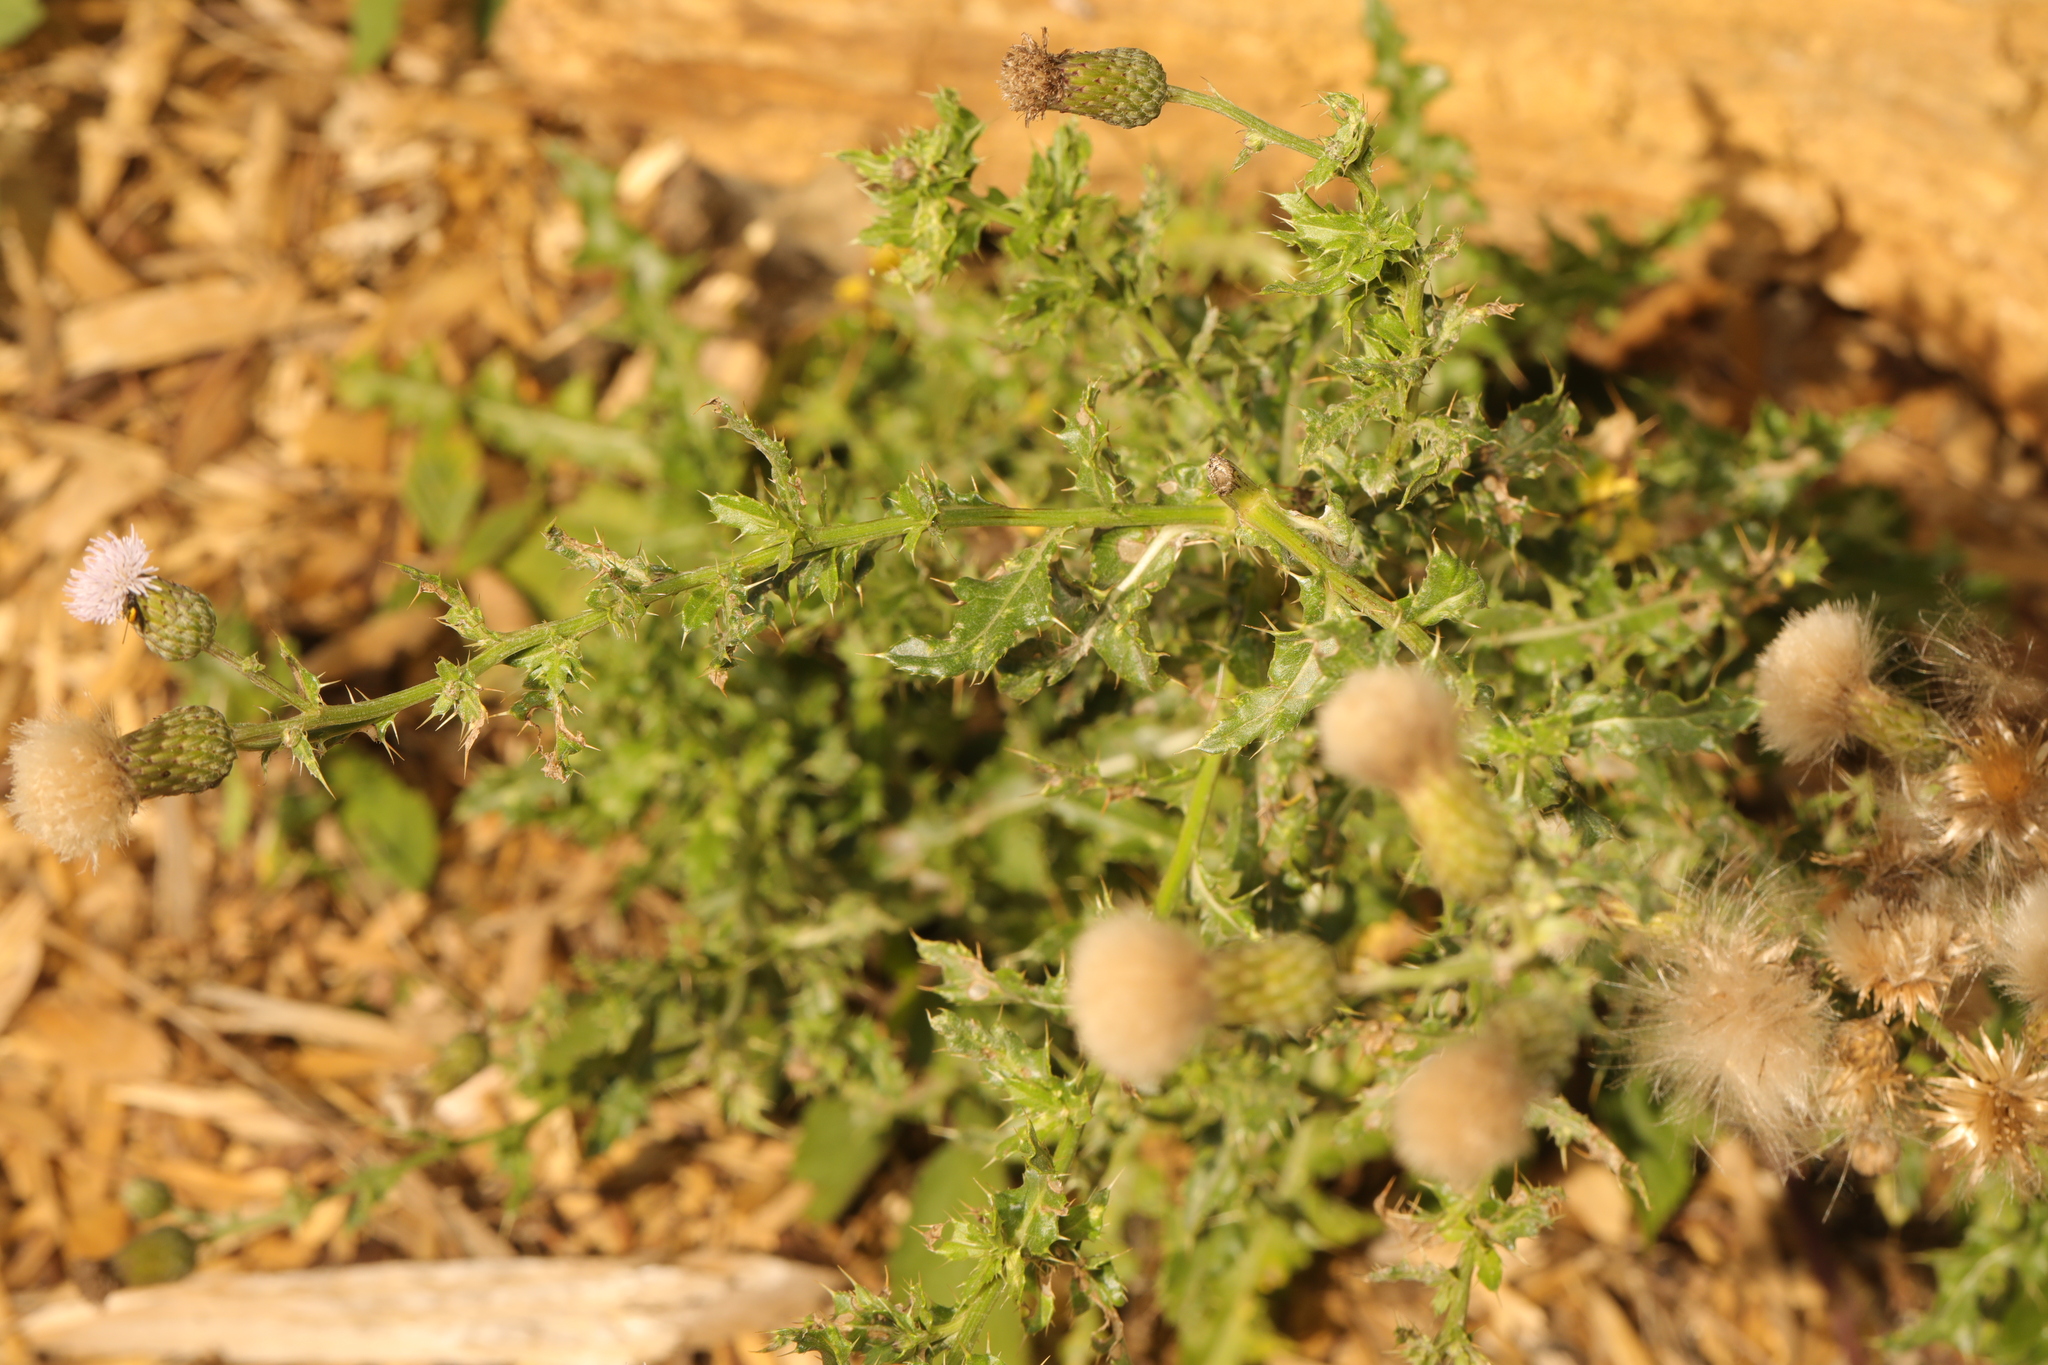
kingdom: Plantae
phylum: Tracheophyta
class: Magnoliopsida
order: Asterales
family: Asteraceae
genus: Cirsium
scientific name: Cirsium arvense
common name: Creeping thistle
